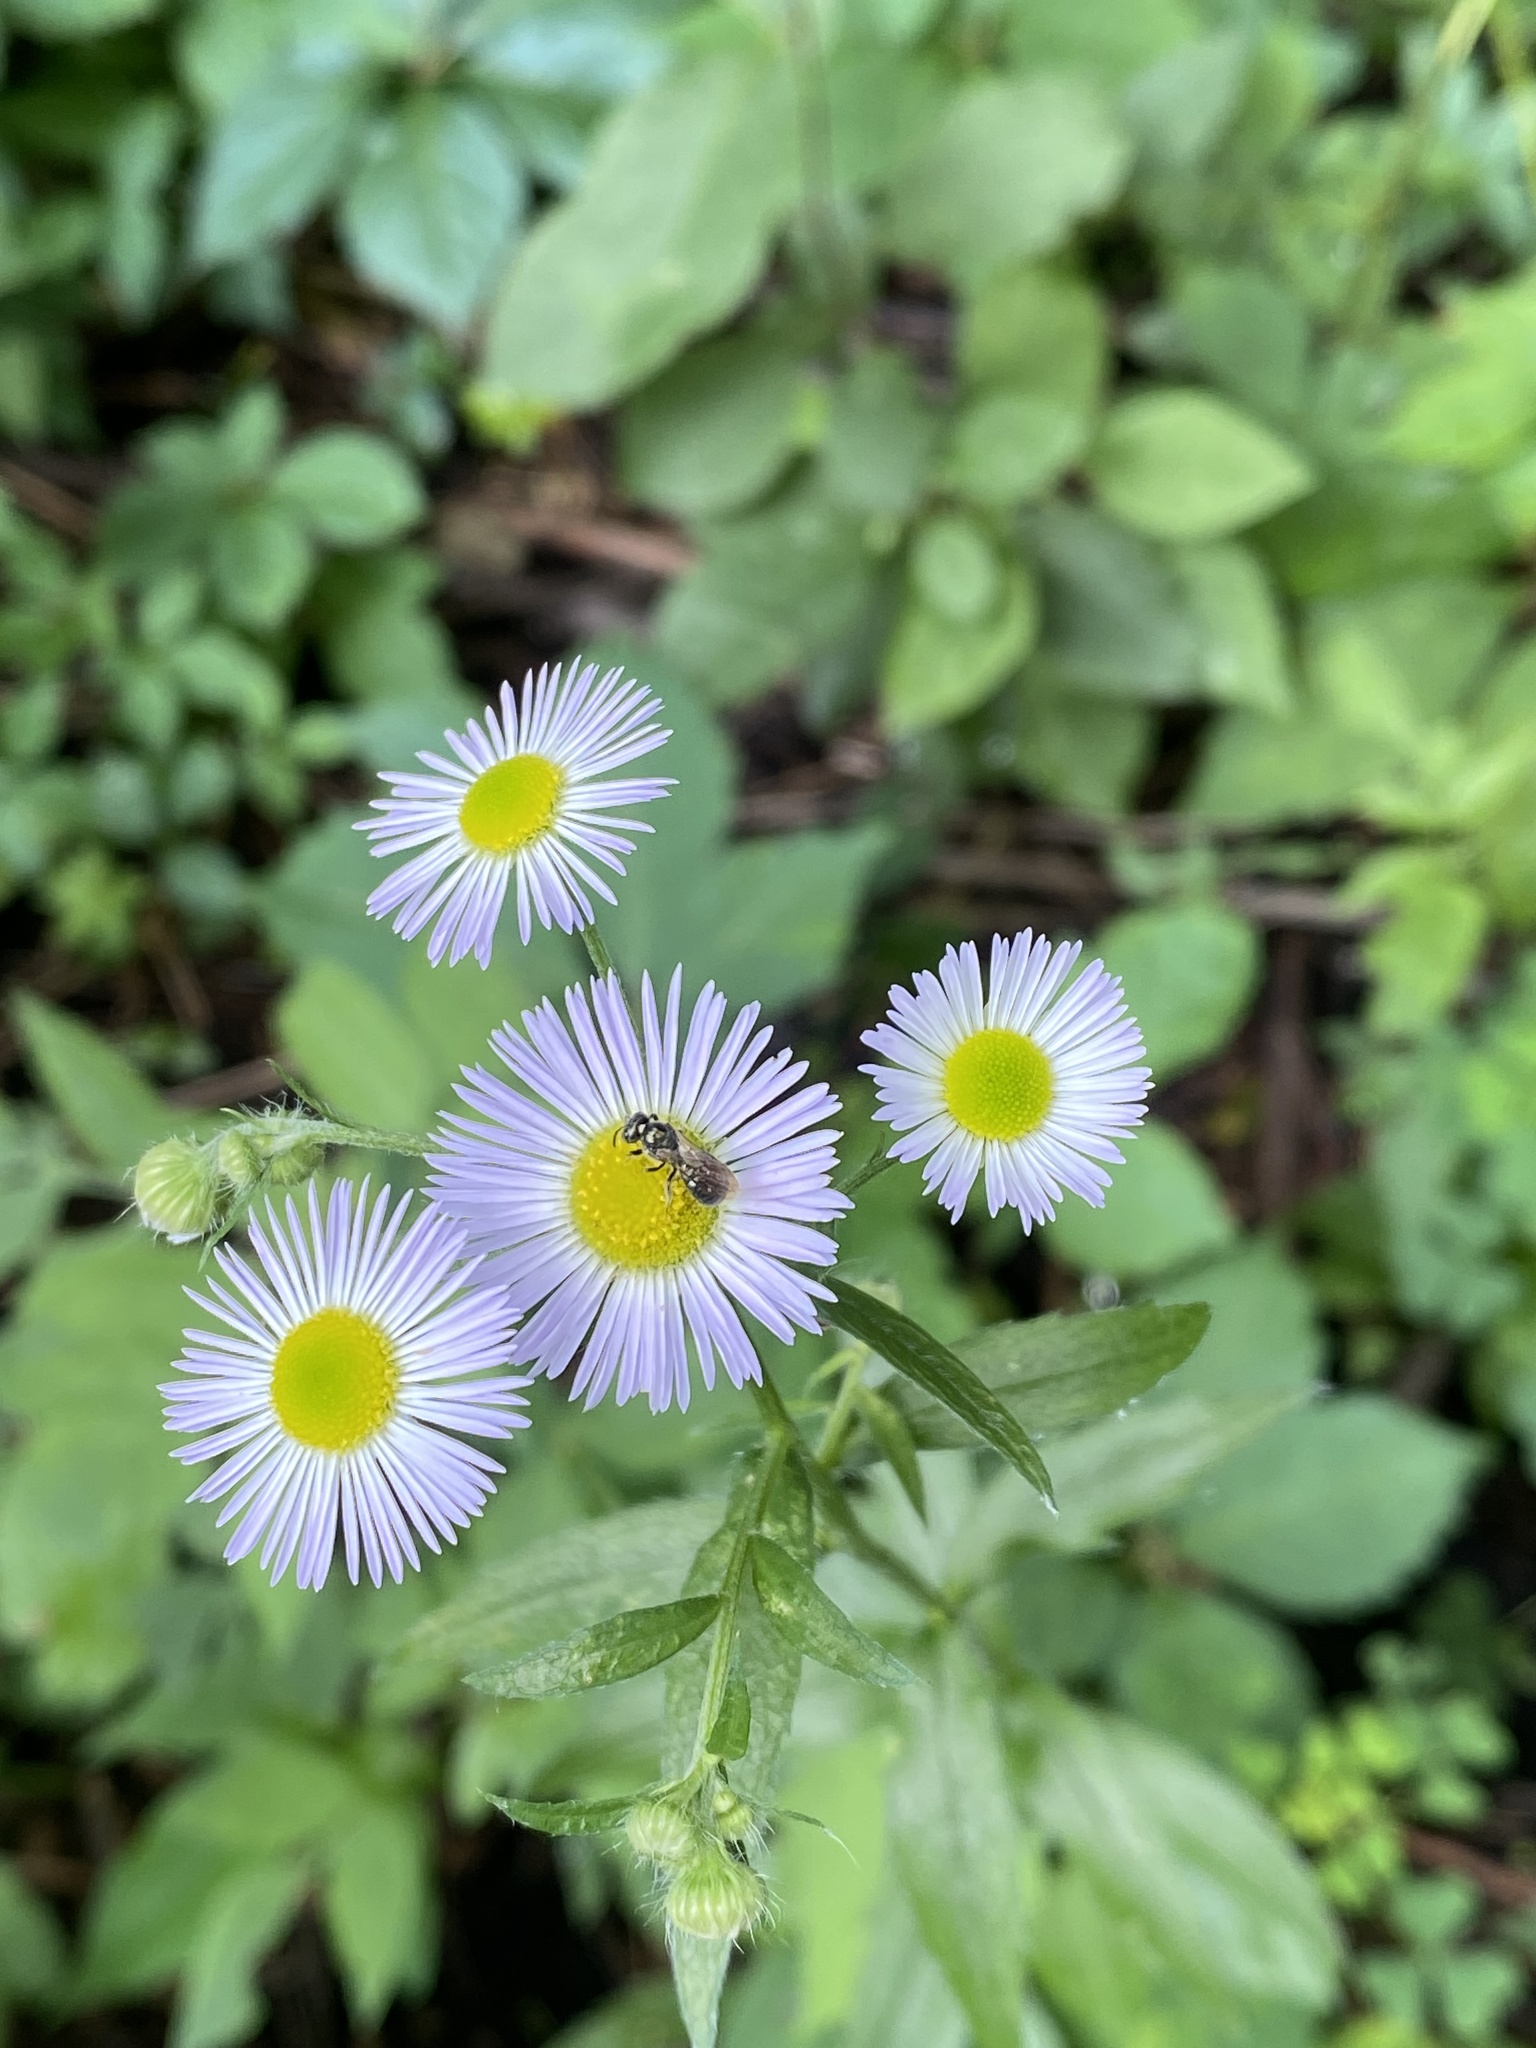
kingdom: Plantae
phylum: Tracheophyta
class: Magnoliopsida
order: Asterales
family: Asteraceae
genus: Erigeron
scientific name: Erigeron annuus
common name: Tall fleabane
